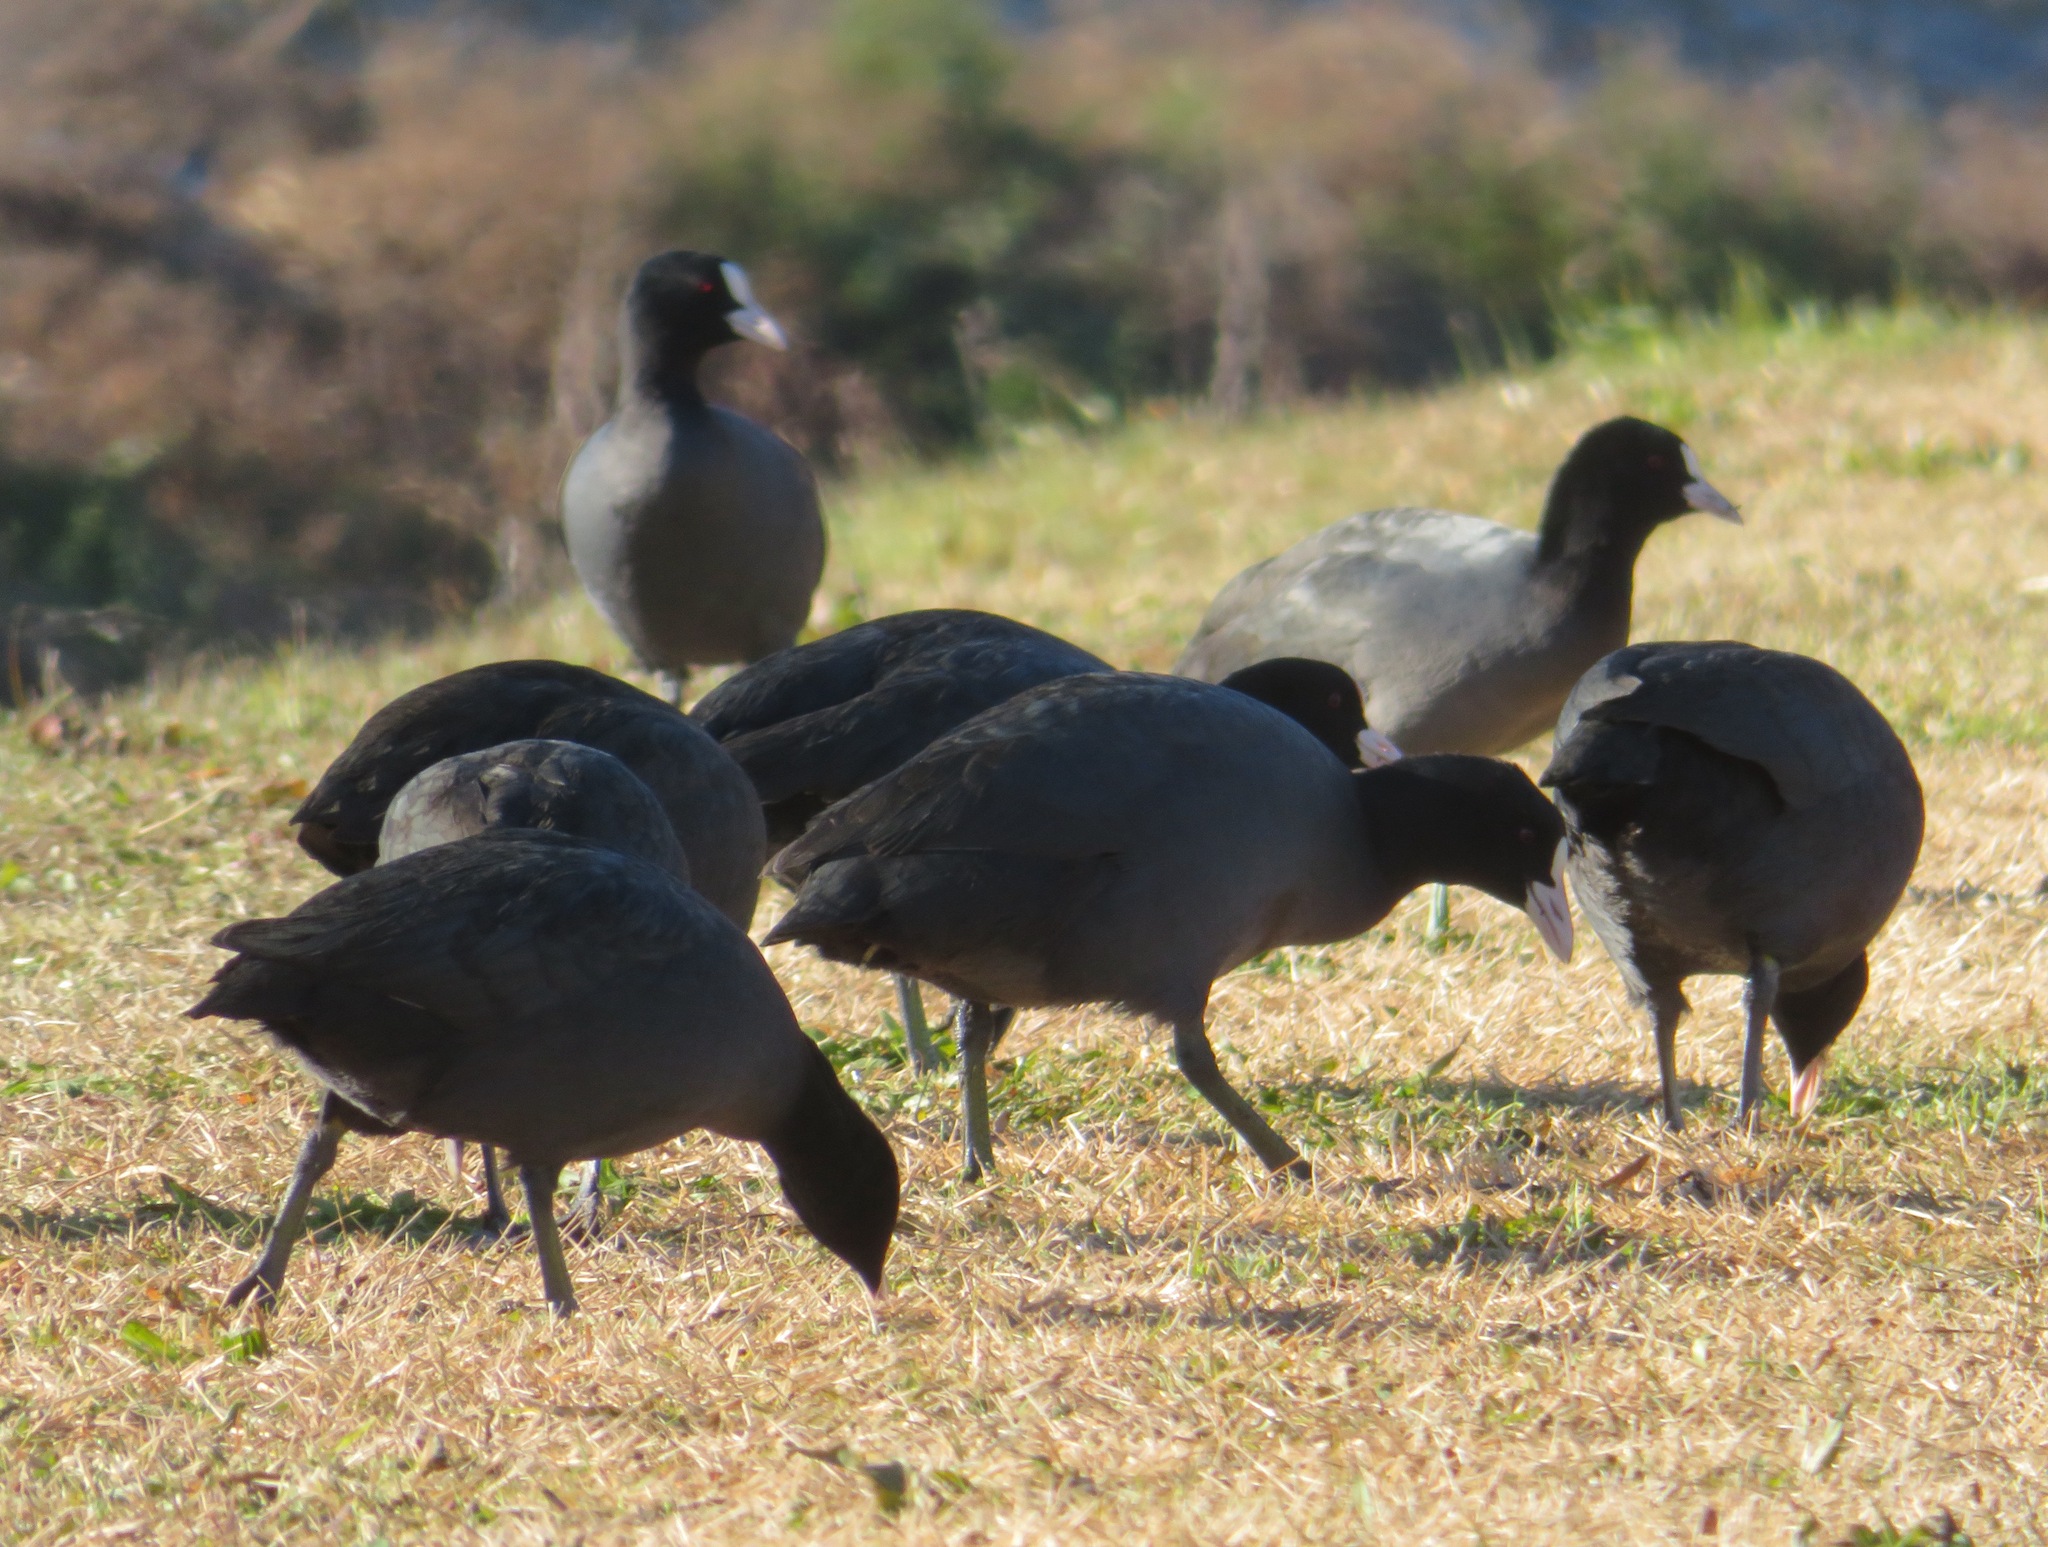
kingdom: Animalia
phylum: Chordata
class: Aves
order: Gruiformes
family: Rallidae
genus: Fulica
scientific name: Fulica atra
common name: Eurasian coot
